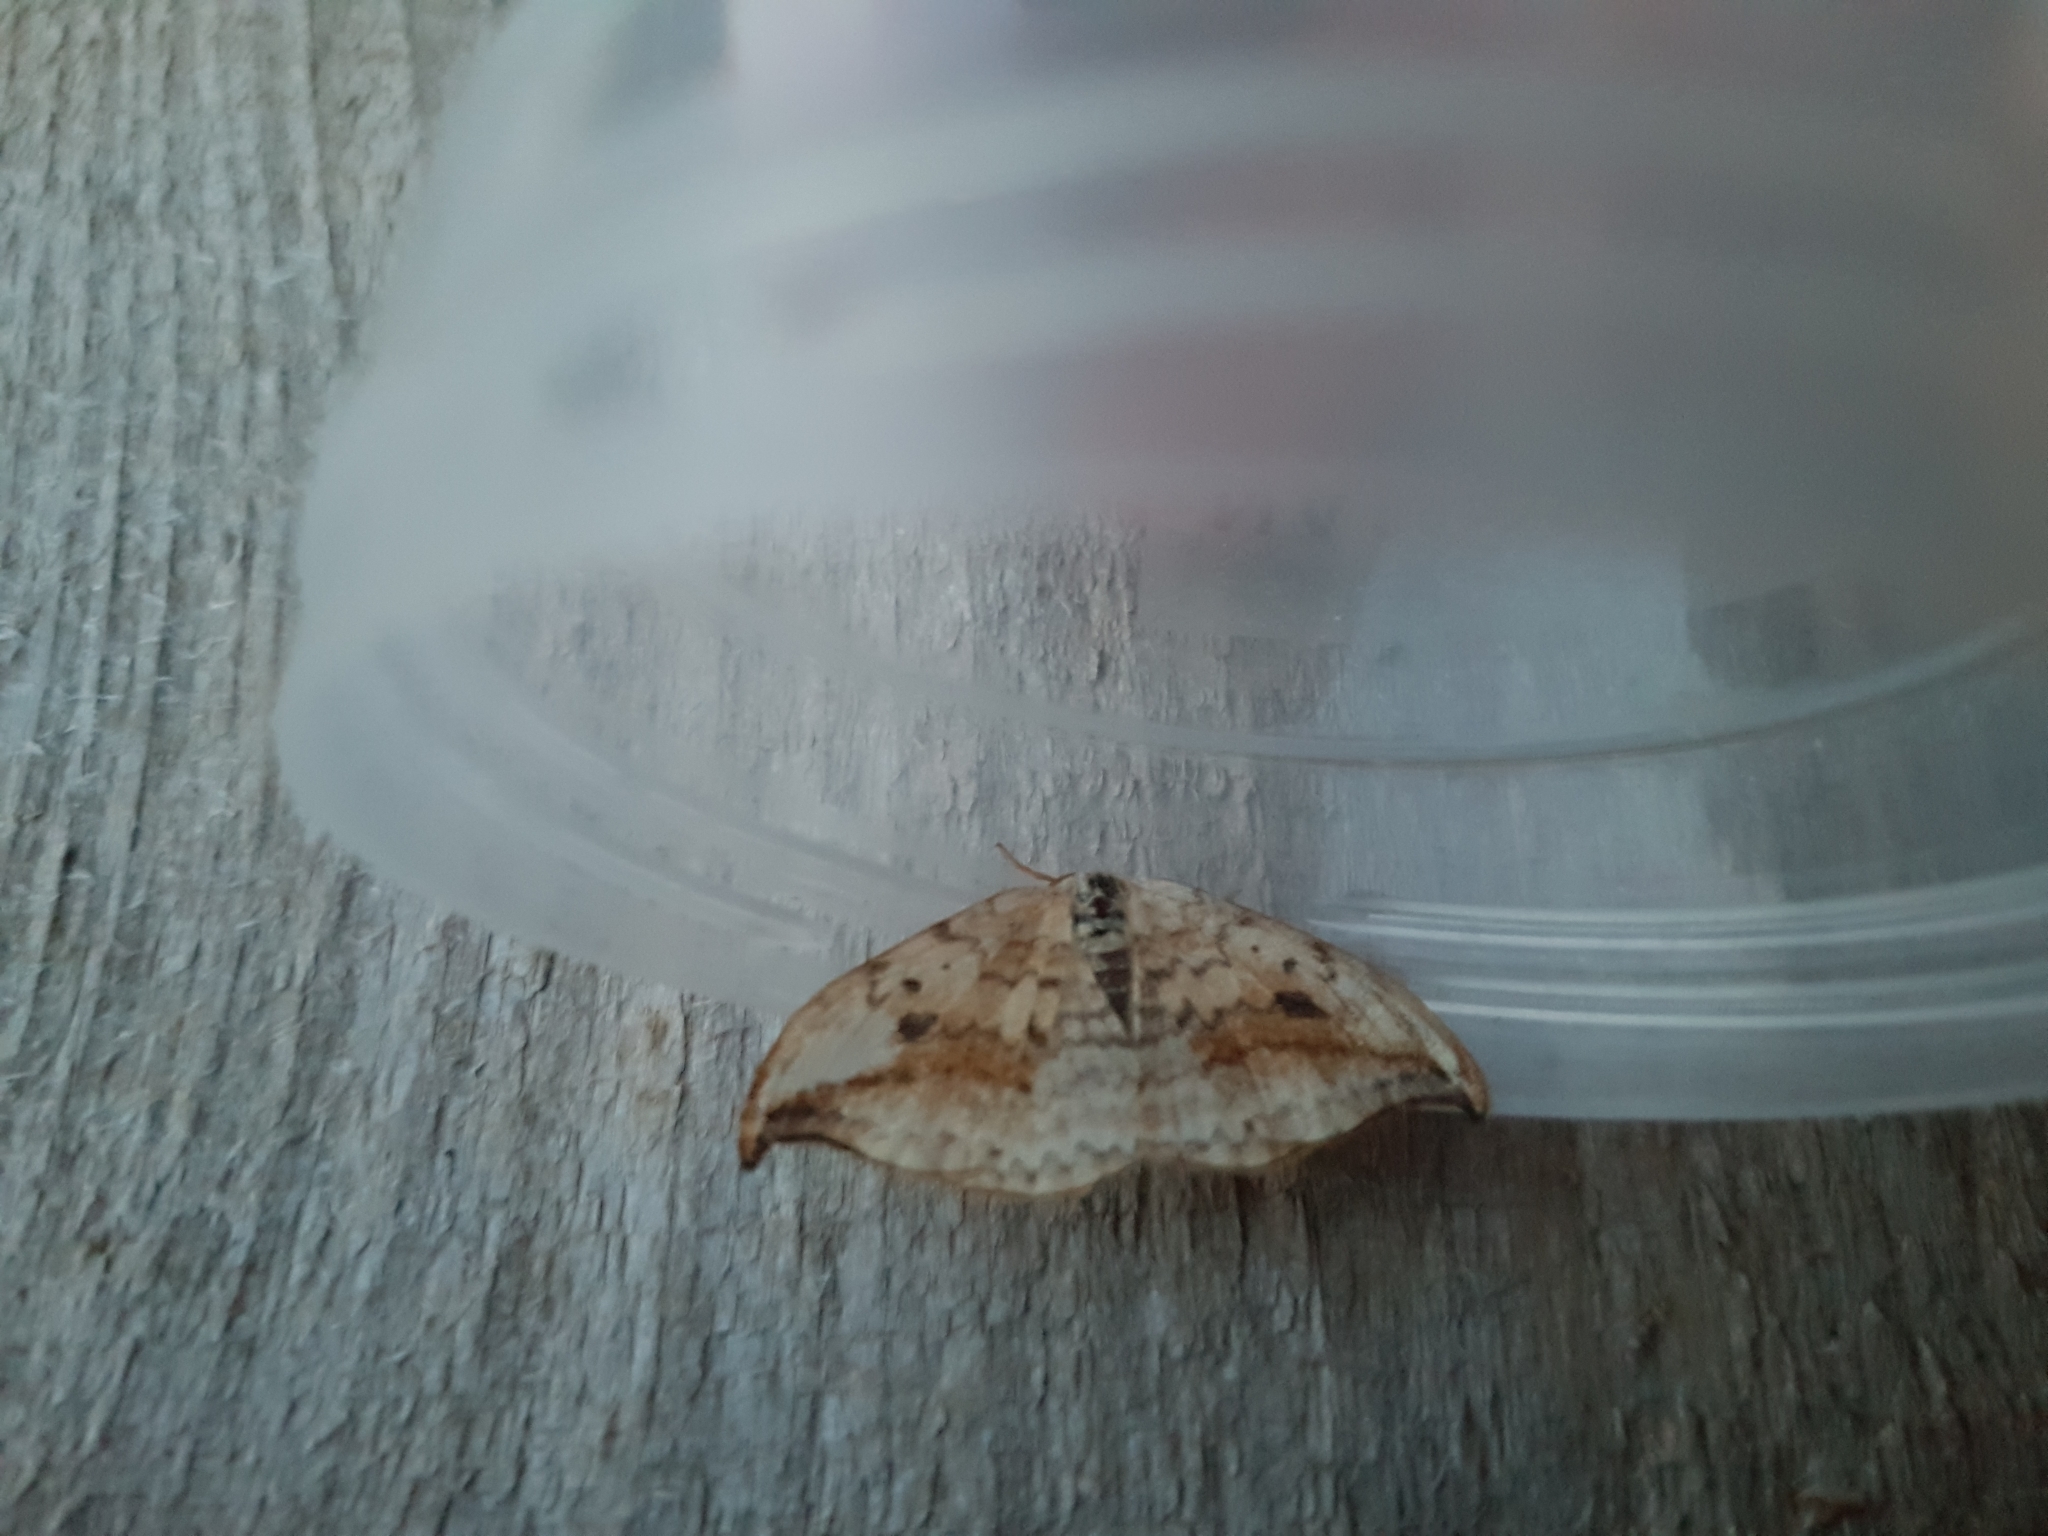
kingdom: Animalia
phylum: Arthropoda
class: Insecta
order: Lepidoptera
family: Drepanidae
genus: Drepana
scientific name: Drepana falcataria
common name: Pebble hook-tip
